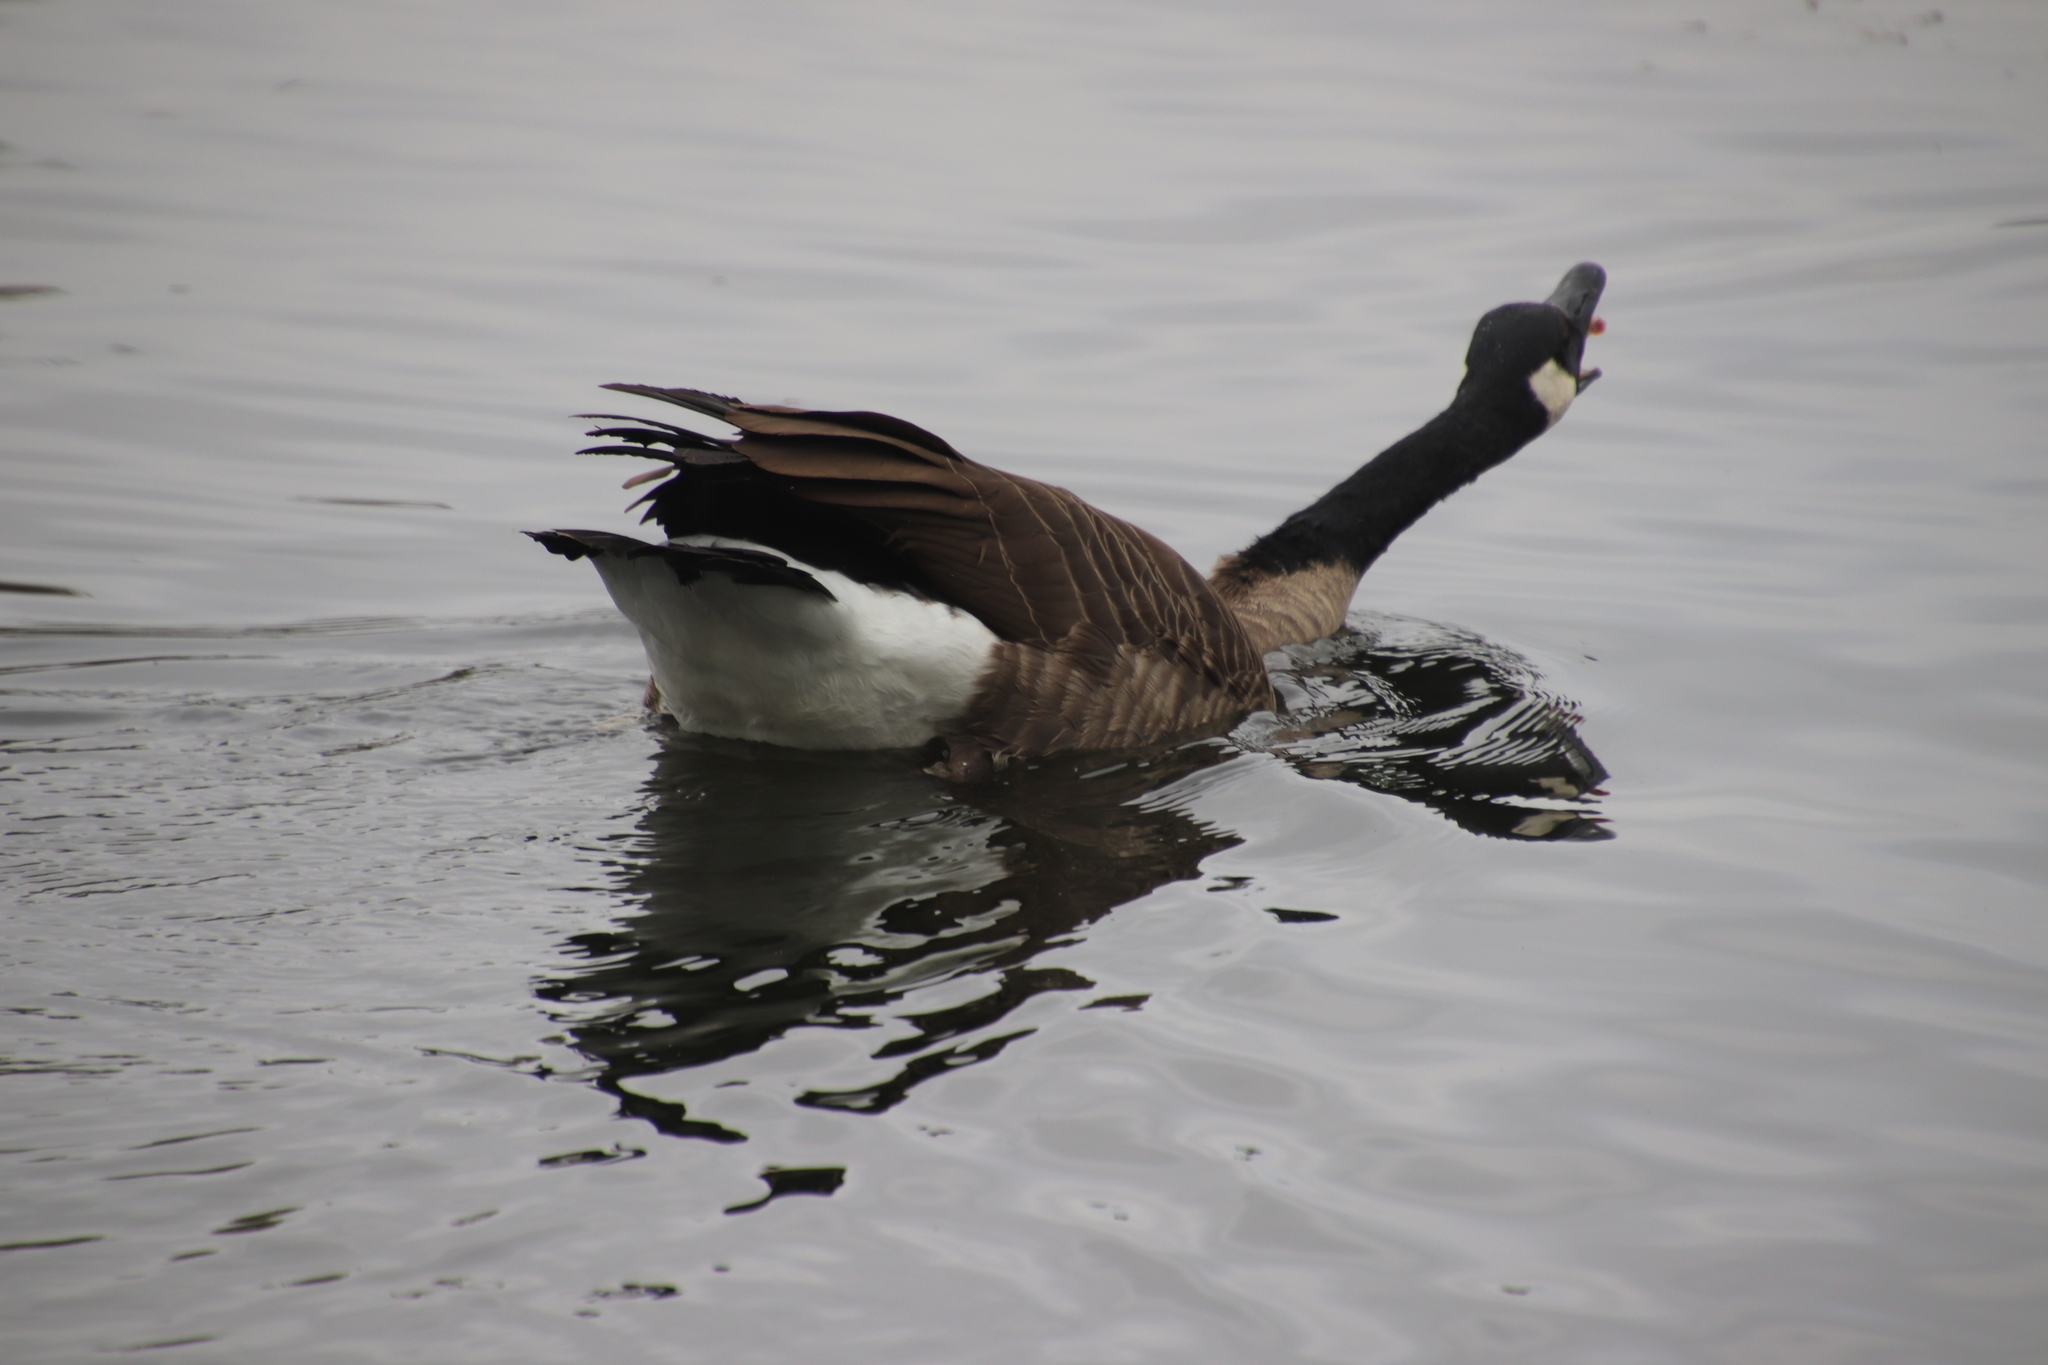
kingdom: Animalia
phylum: Chordata
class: Aves
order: Anseriformes
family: Anatidae
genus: Branta
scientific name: Branta canadensis
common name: Canada goose
